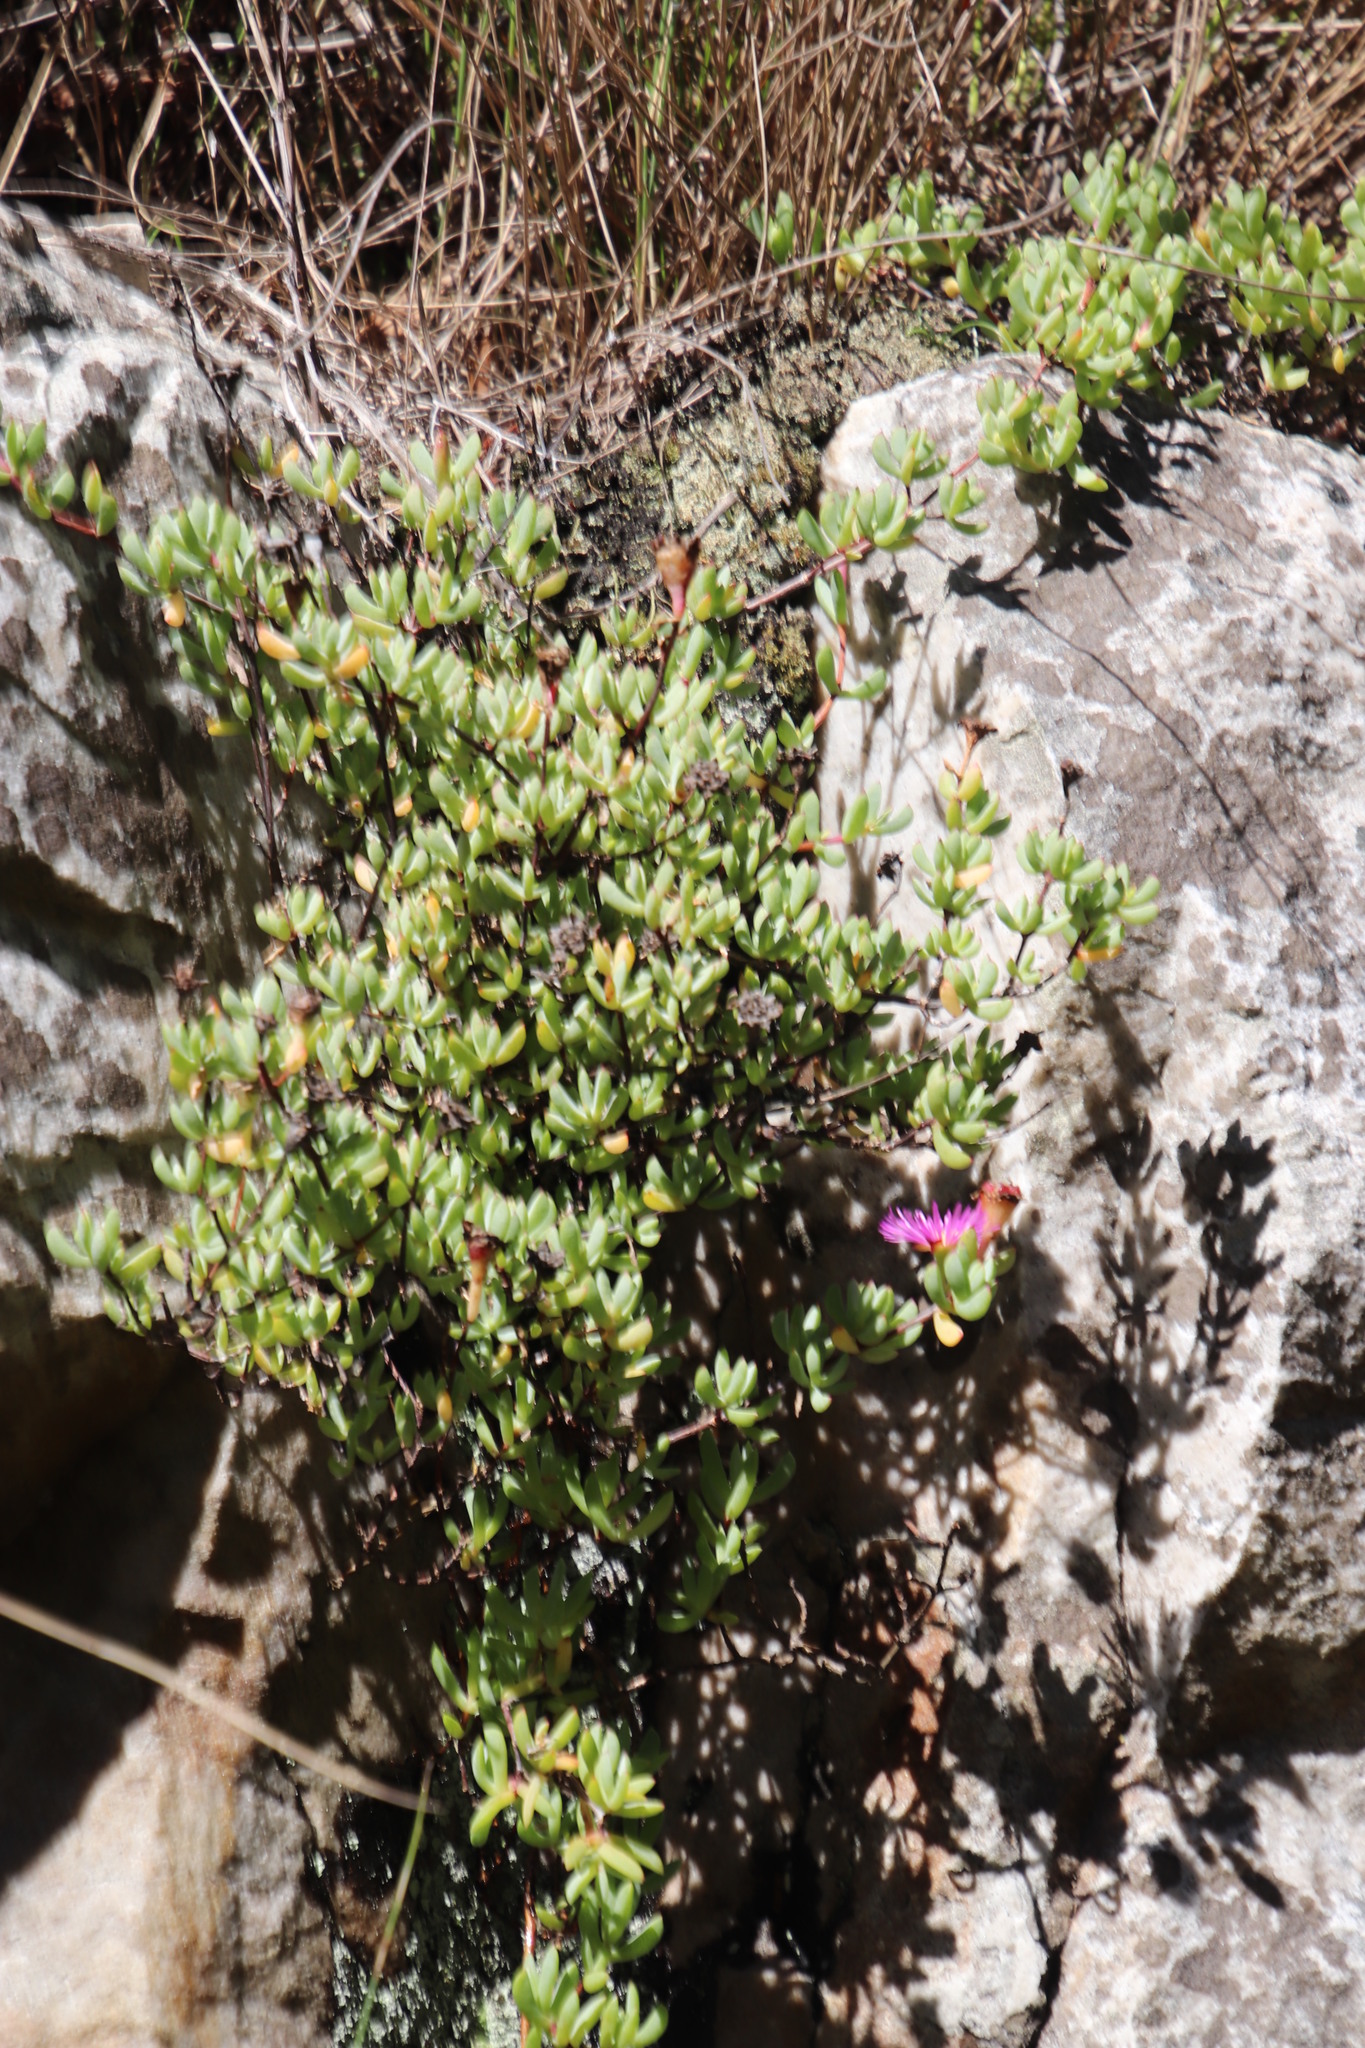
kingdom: Plantae
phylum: Tracheophyta
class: Magnoliopsida
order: Caryophyllales
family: Aizoaceae
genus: Oscularia
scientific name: Oscularia falciformis
